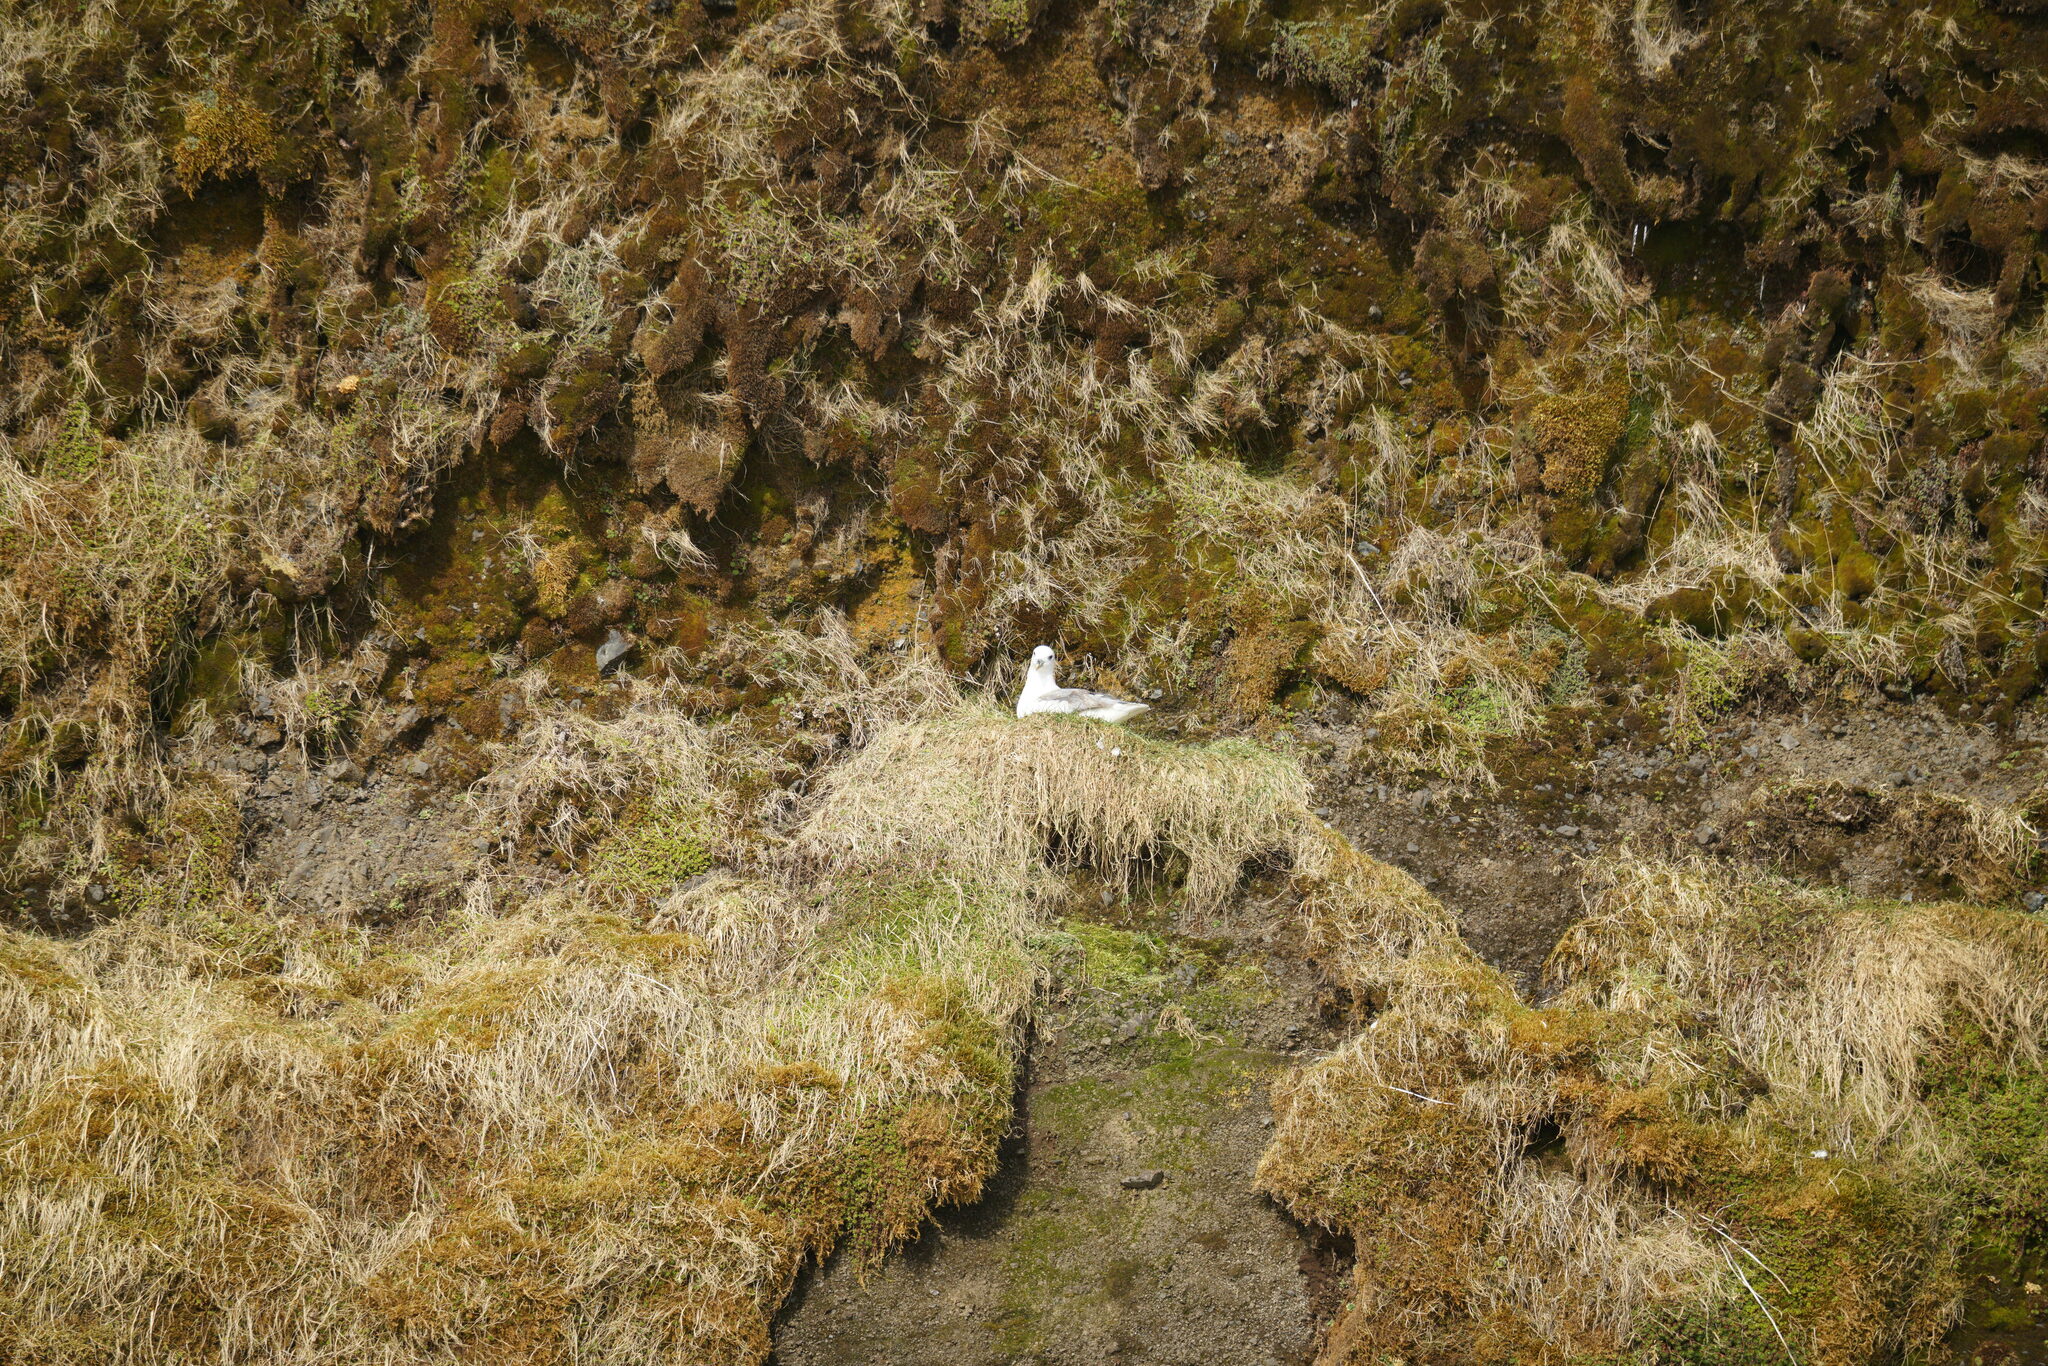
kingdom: Animalia
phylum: Chordata
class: Aves
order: Procellariiformes
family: Procellariidae
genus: Fulmarus
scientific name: Fulmarus glacialis
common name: Northern fulmar
